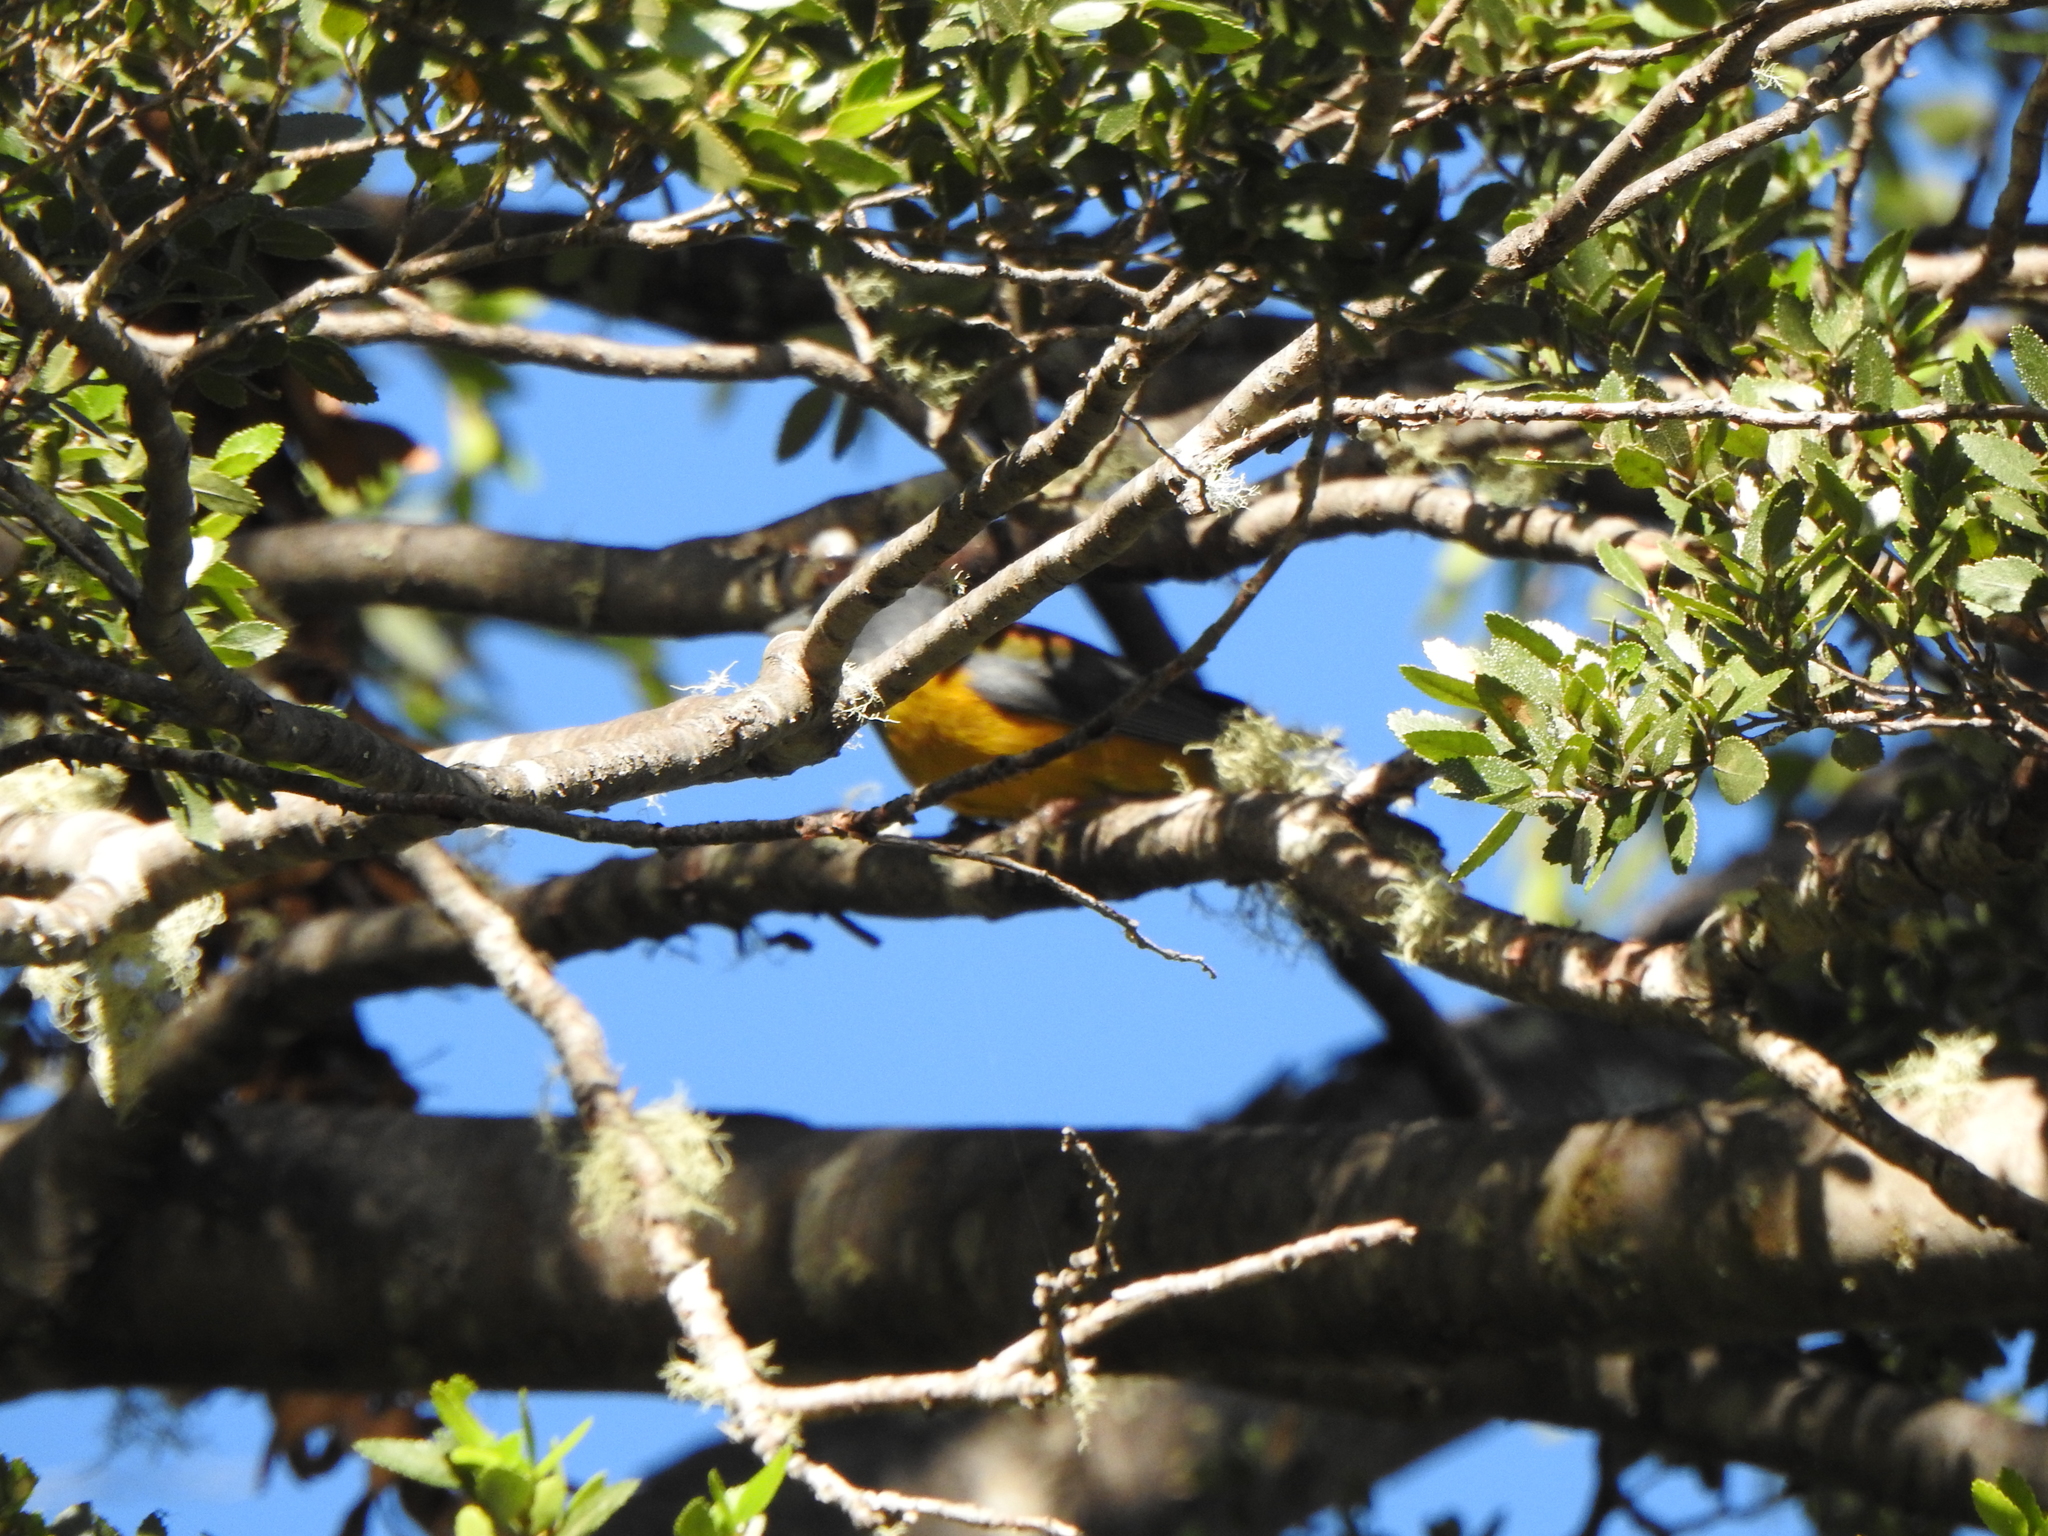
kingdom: Animalia
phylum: Chordata
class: Aves
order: Passeriformes
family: Thraupidae
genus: Phrygilus
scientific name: Phrygilus patagonicus
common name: Patagonian sierra finch
